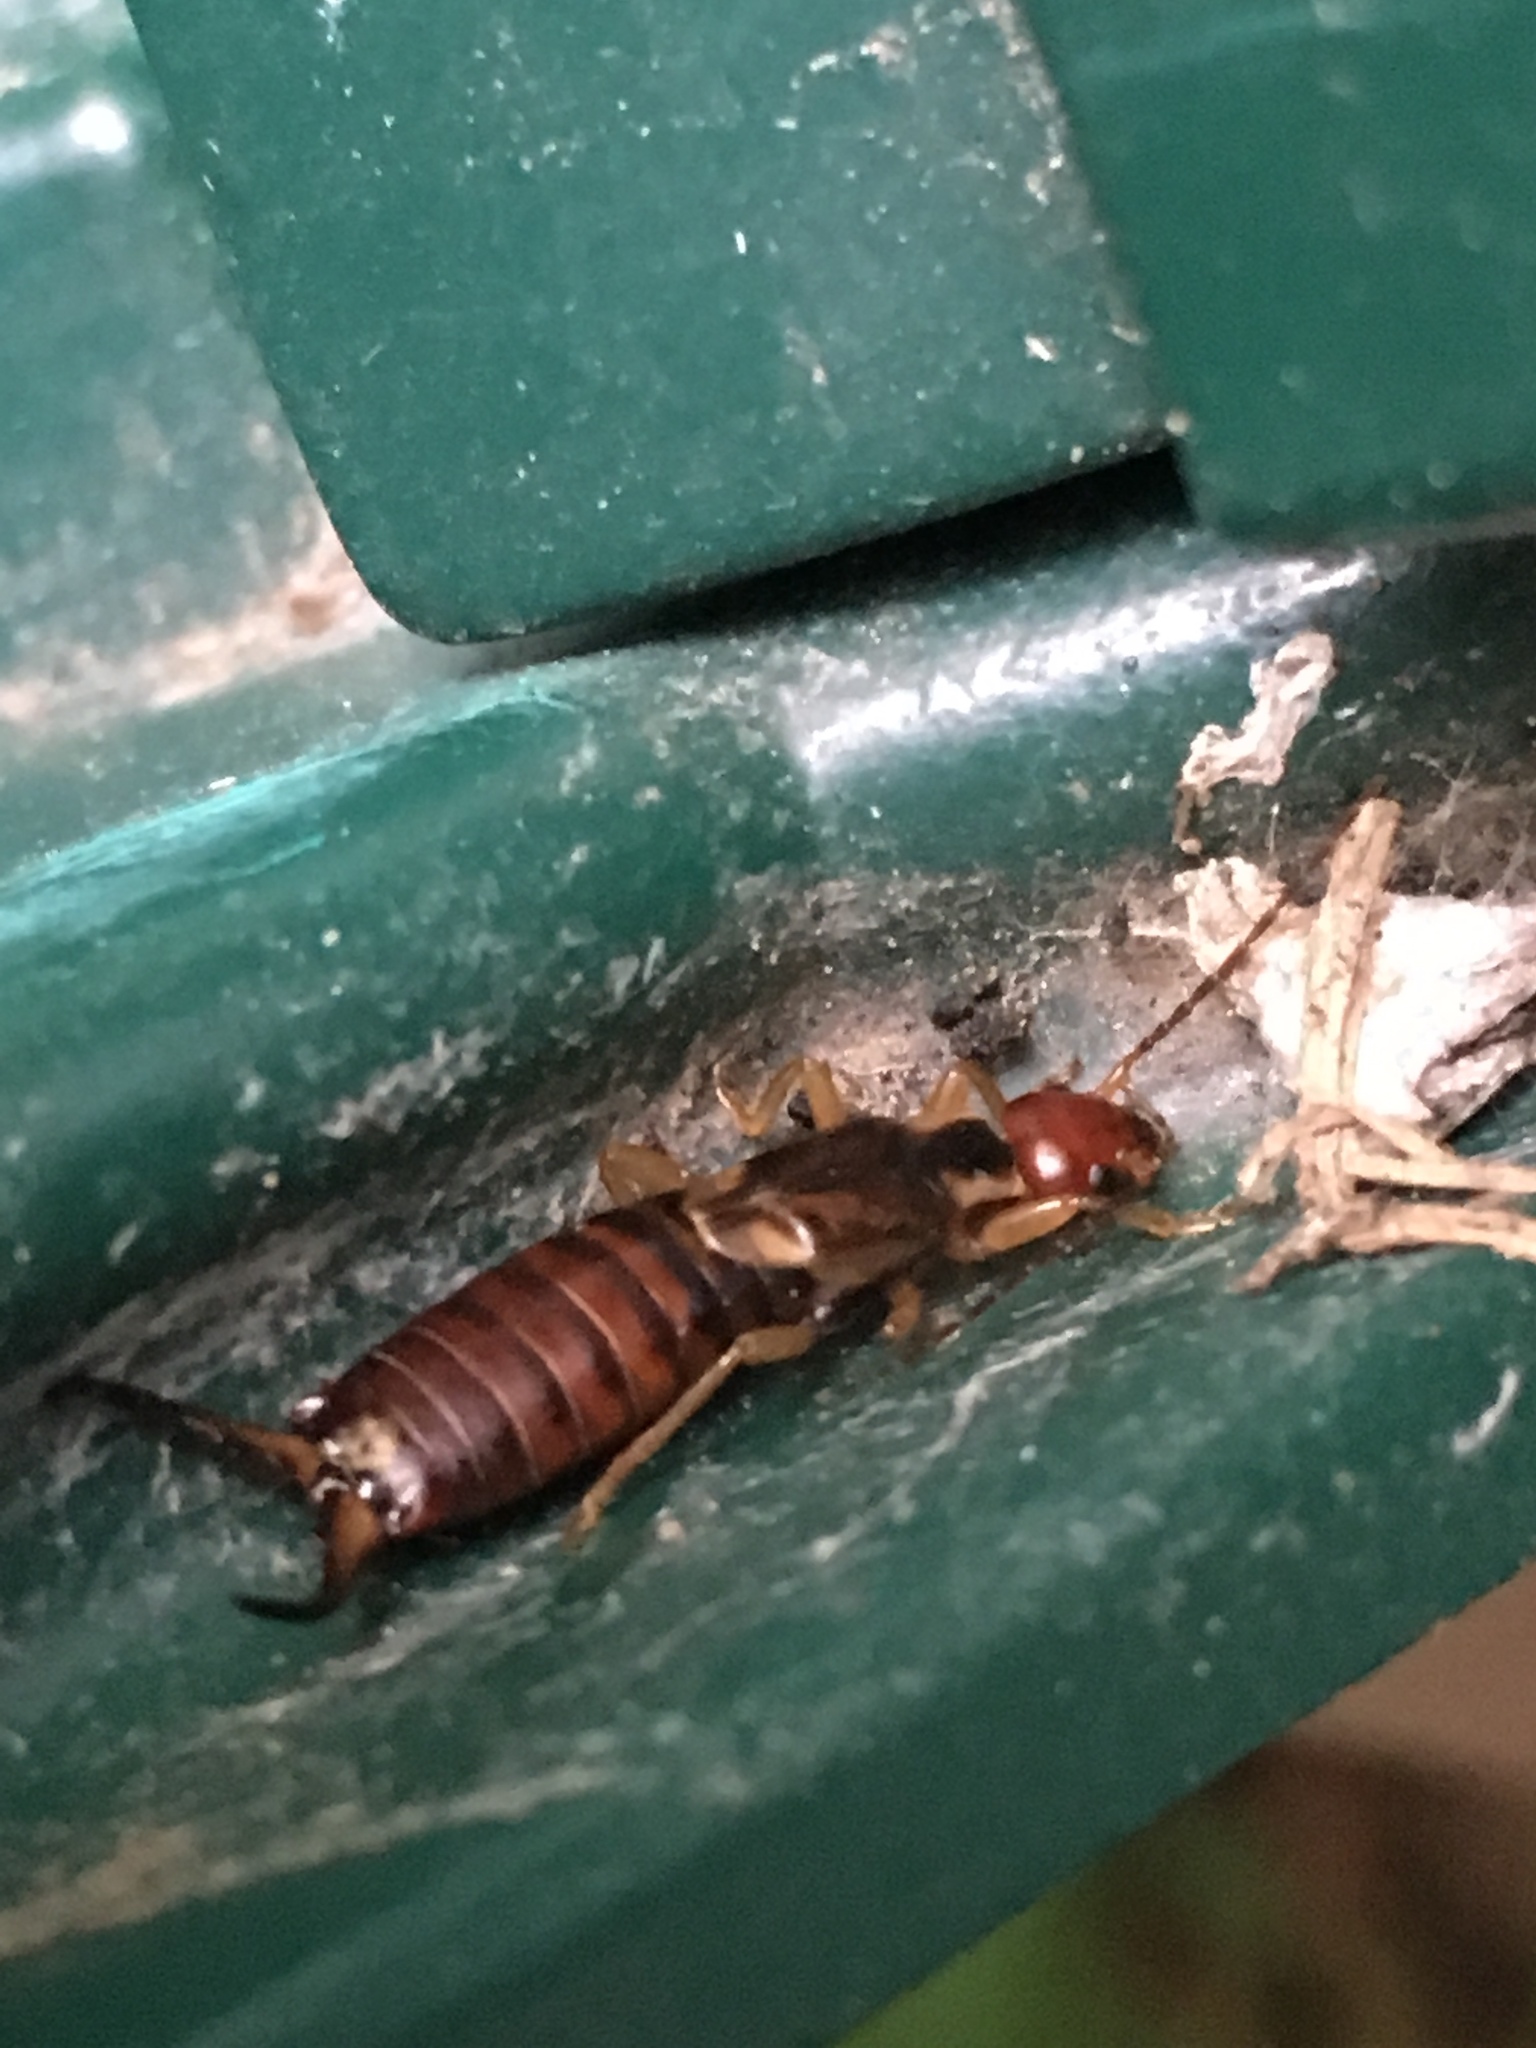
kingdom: Animalia
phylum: Arthropoda
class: Insecta
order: Dermaptera
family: Forficulidae
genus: Forficula
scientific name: Forficula
